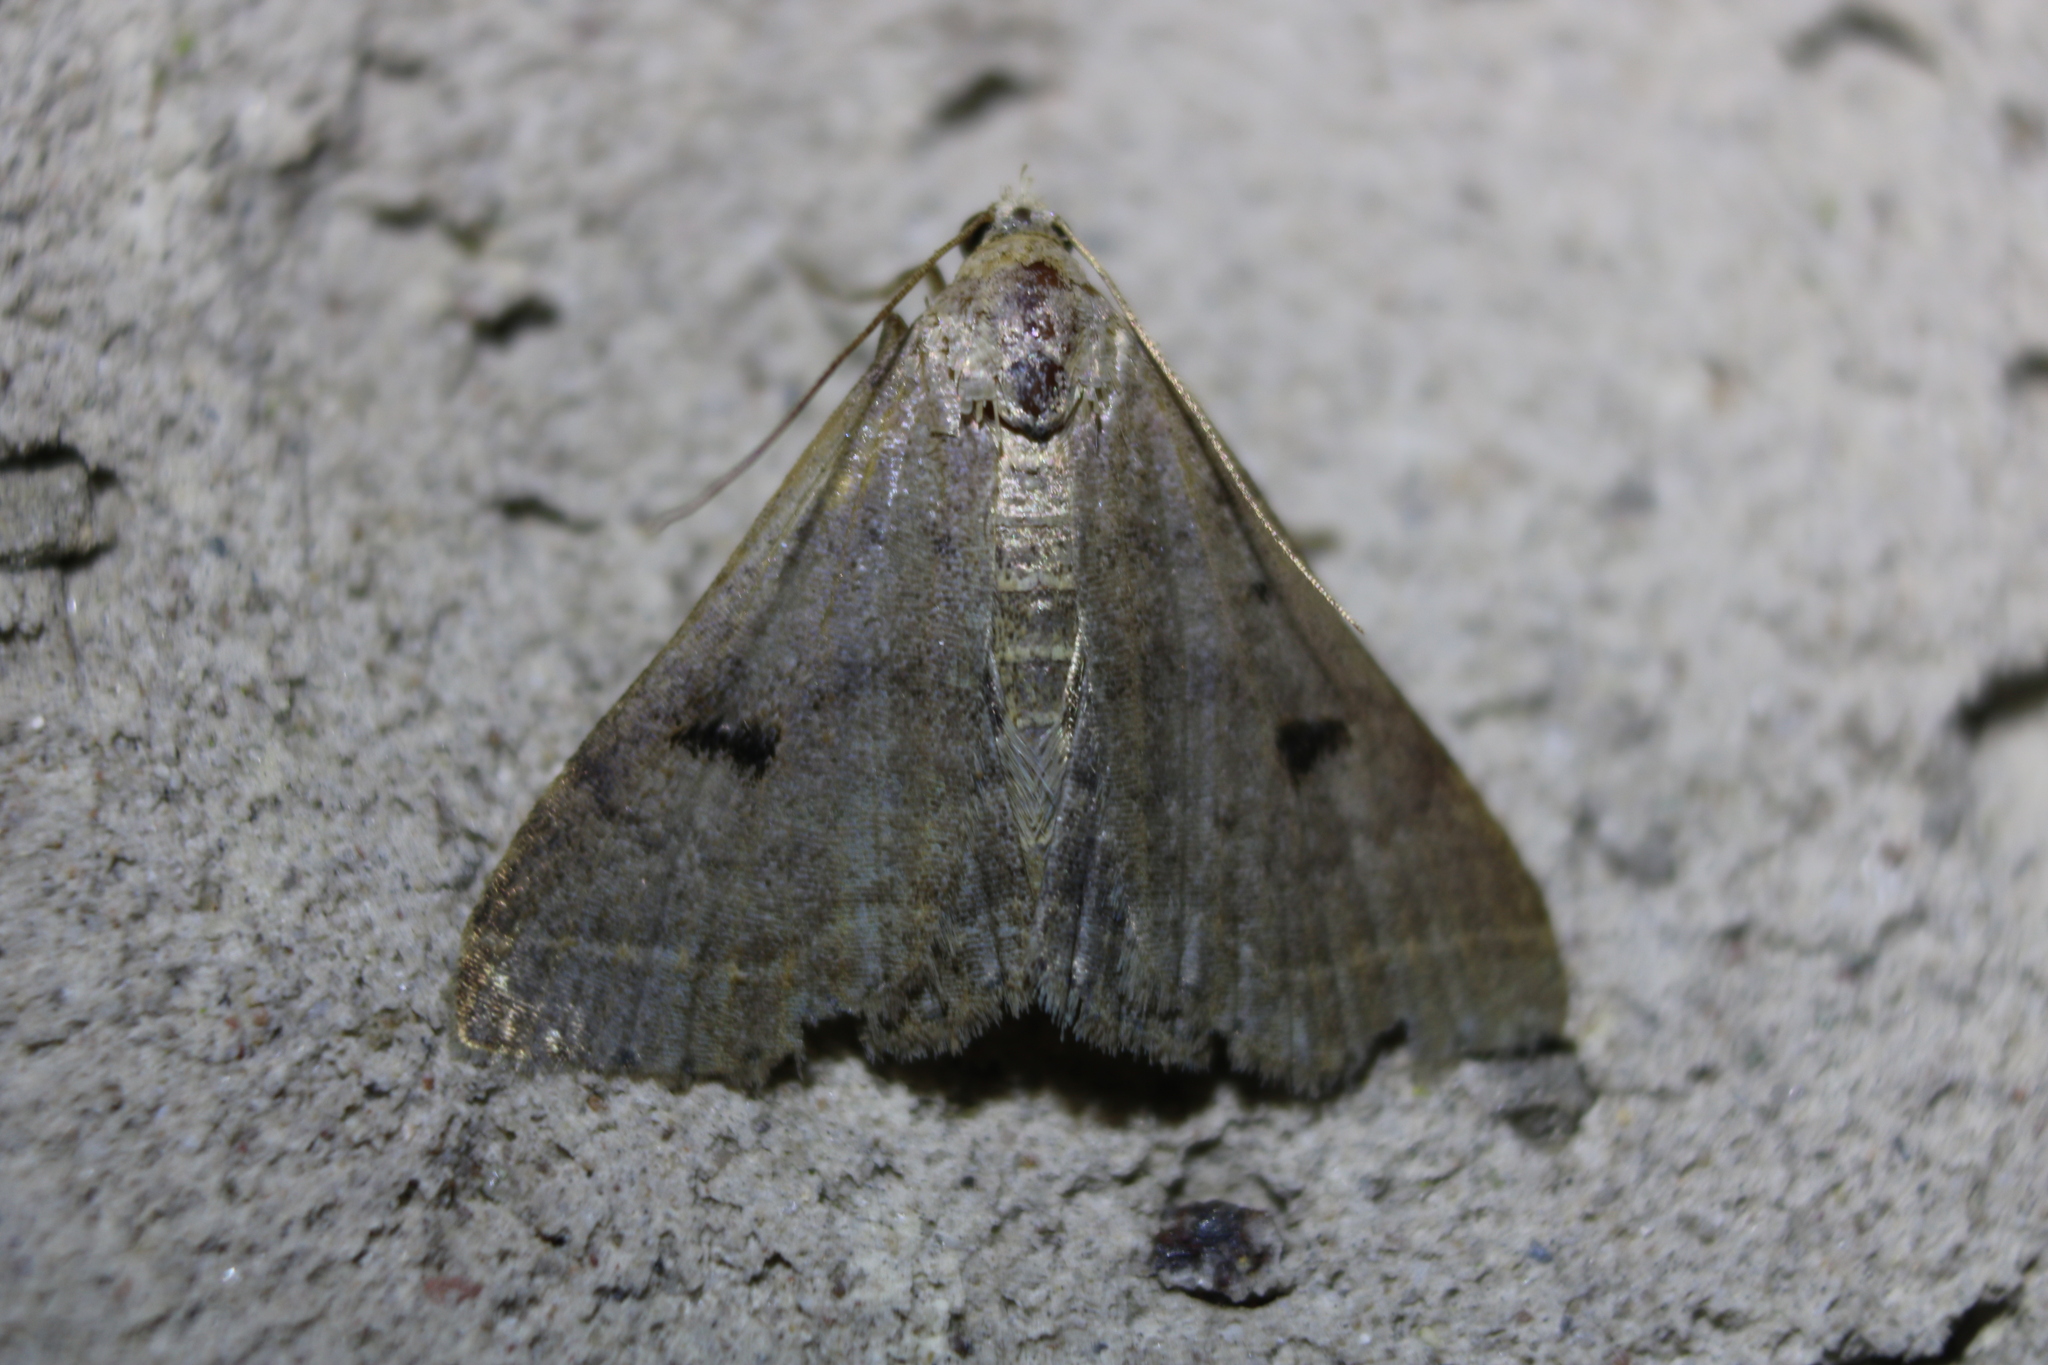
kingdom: Animalia
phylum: Arthropoda
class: Insecta
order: Lepidoptera
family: Erebidae
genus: Bleptina
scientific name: Bleptina caradrinalis
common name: Bent-winged owlet
